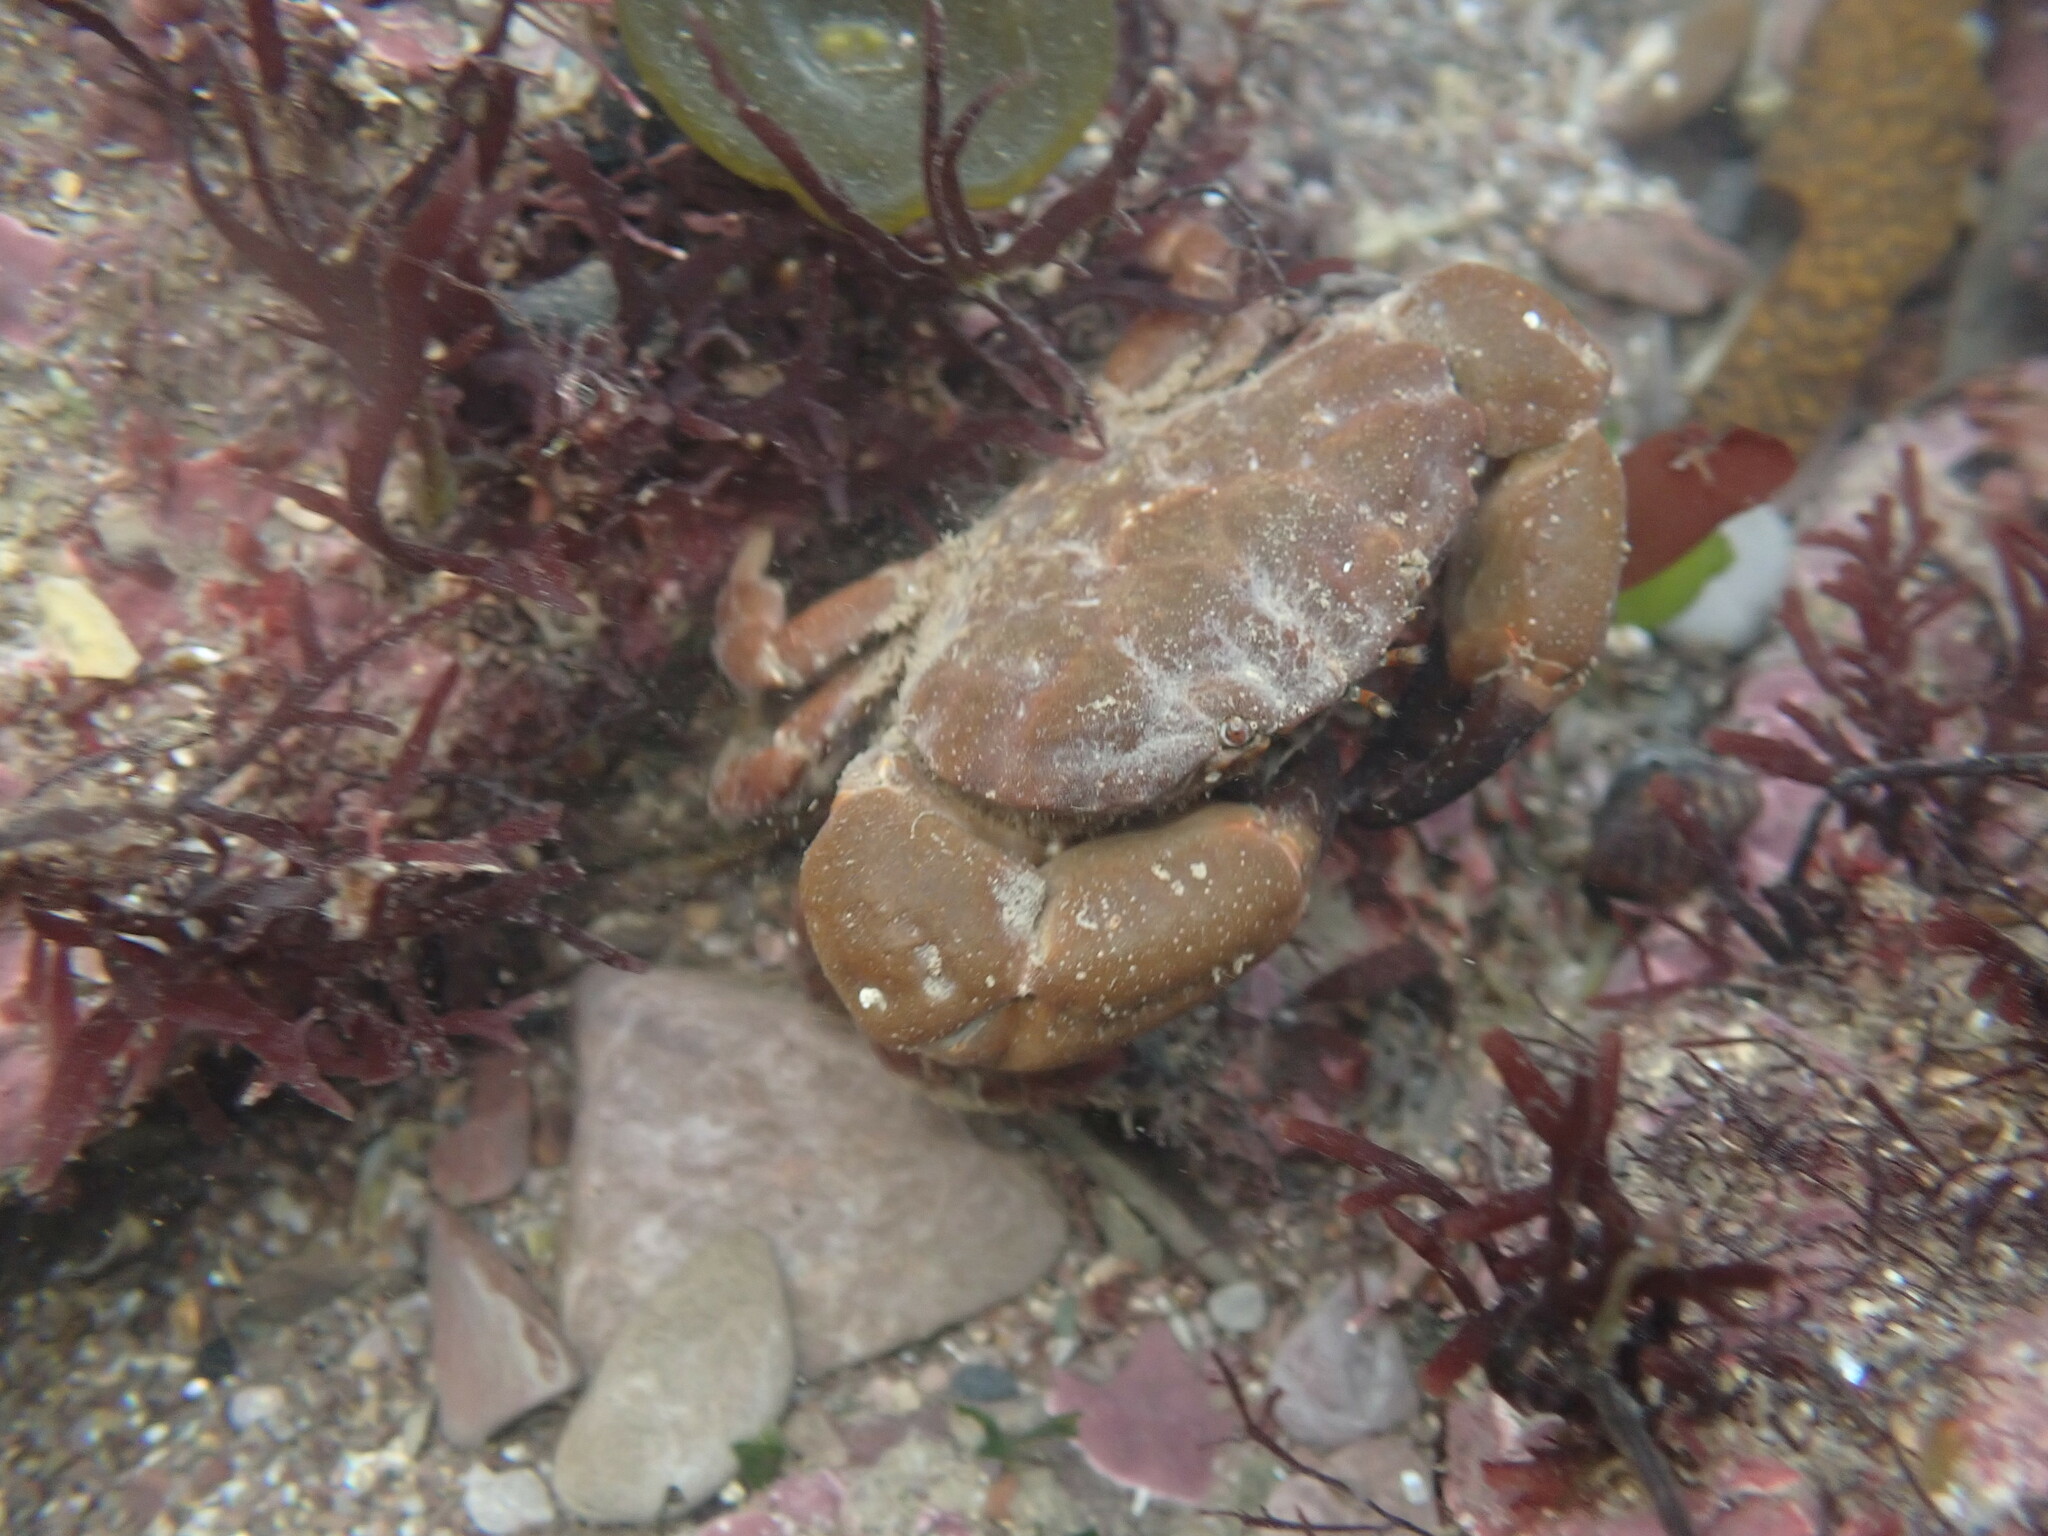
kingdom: Animalia
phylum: Arthropoda
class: Malacostraca
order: Decapoda
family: Xanthidae
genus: Xantho
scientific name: Xantho hydrophilus
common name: Montagu's crab
